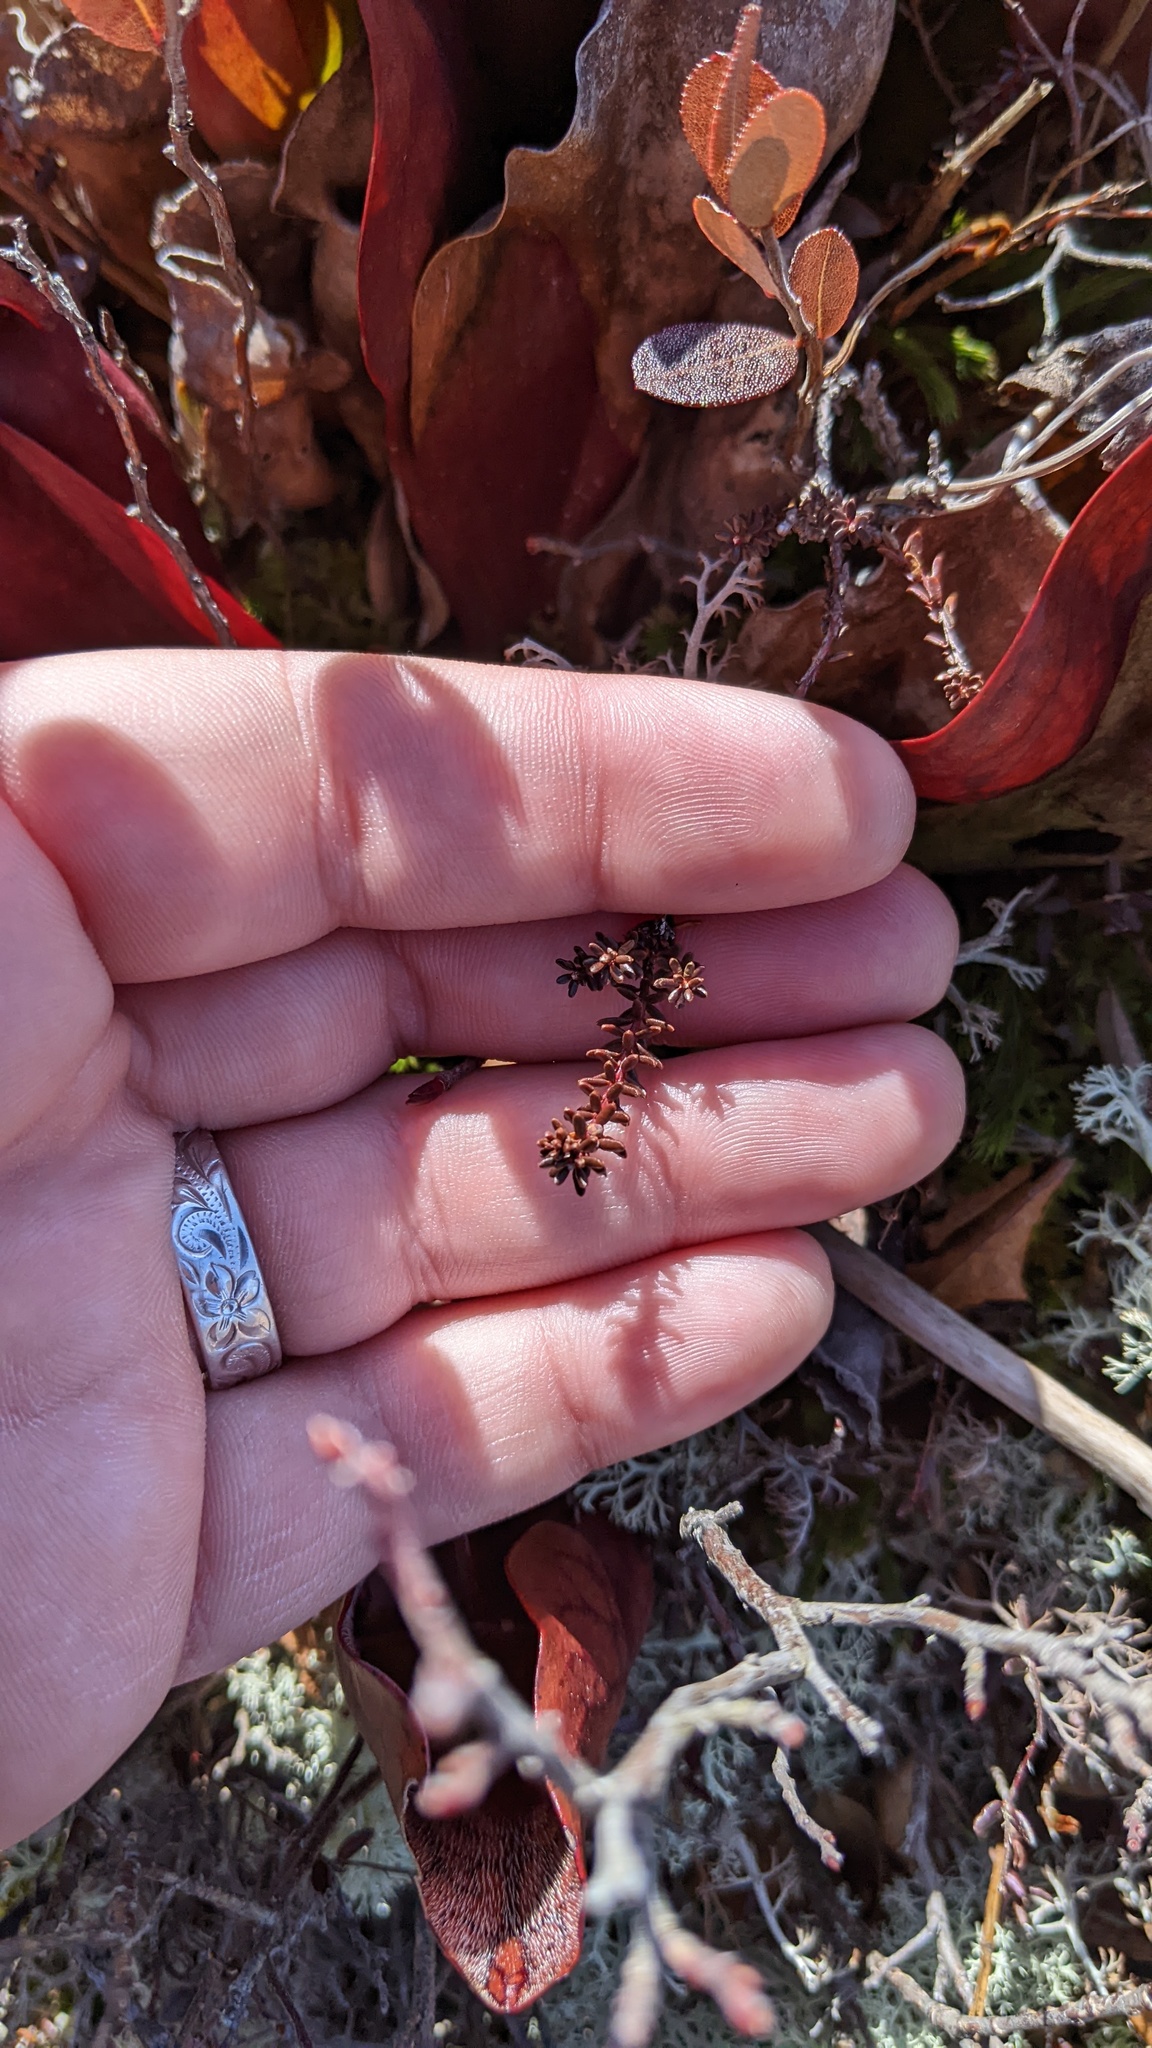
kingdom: Plantae
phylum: Tracheophyta
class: Magnoliopsida
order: Ericales
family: Ericaceae
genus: Empetrum
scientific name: Empetrum nigrum
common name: Black crowberry
